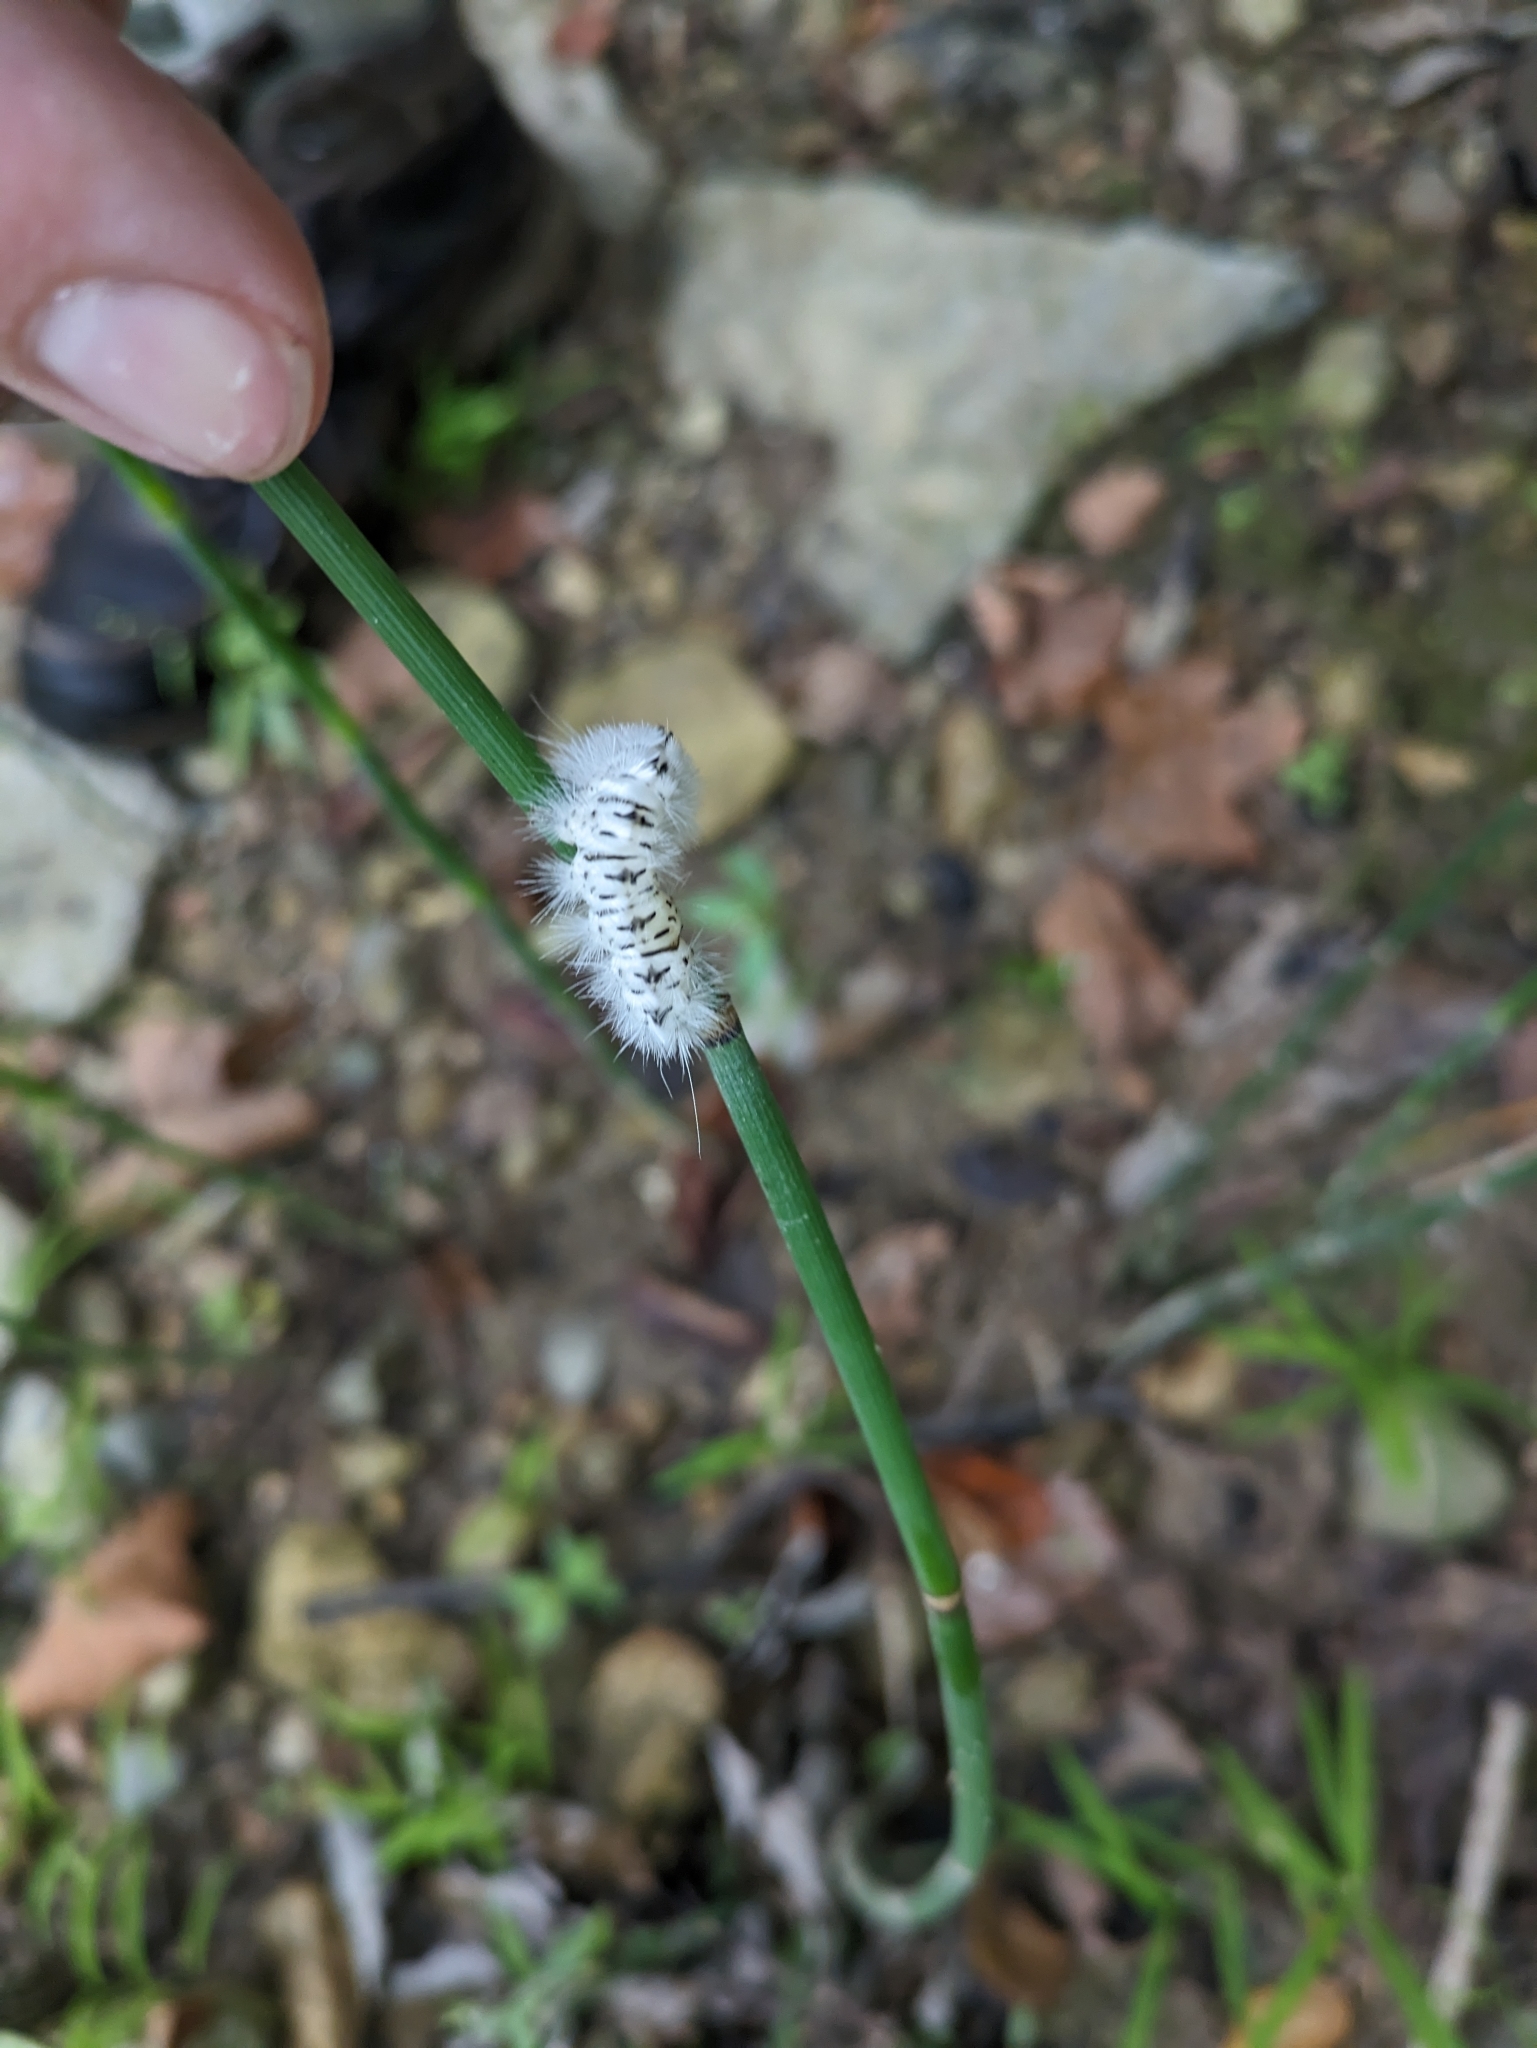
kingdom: Animalia
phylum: Arthropoda
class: Insecta
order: Lepidoptera
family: Erebidae
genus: Lophocampa
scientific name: Lophocampa caryae
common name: Hickory tussock moth
